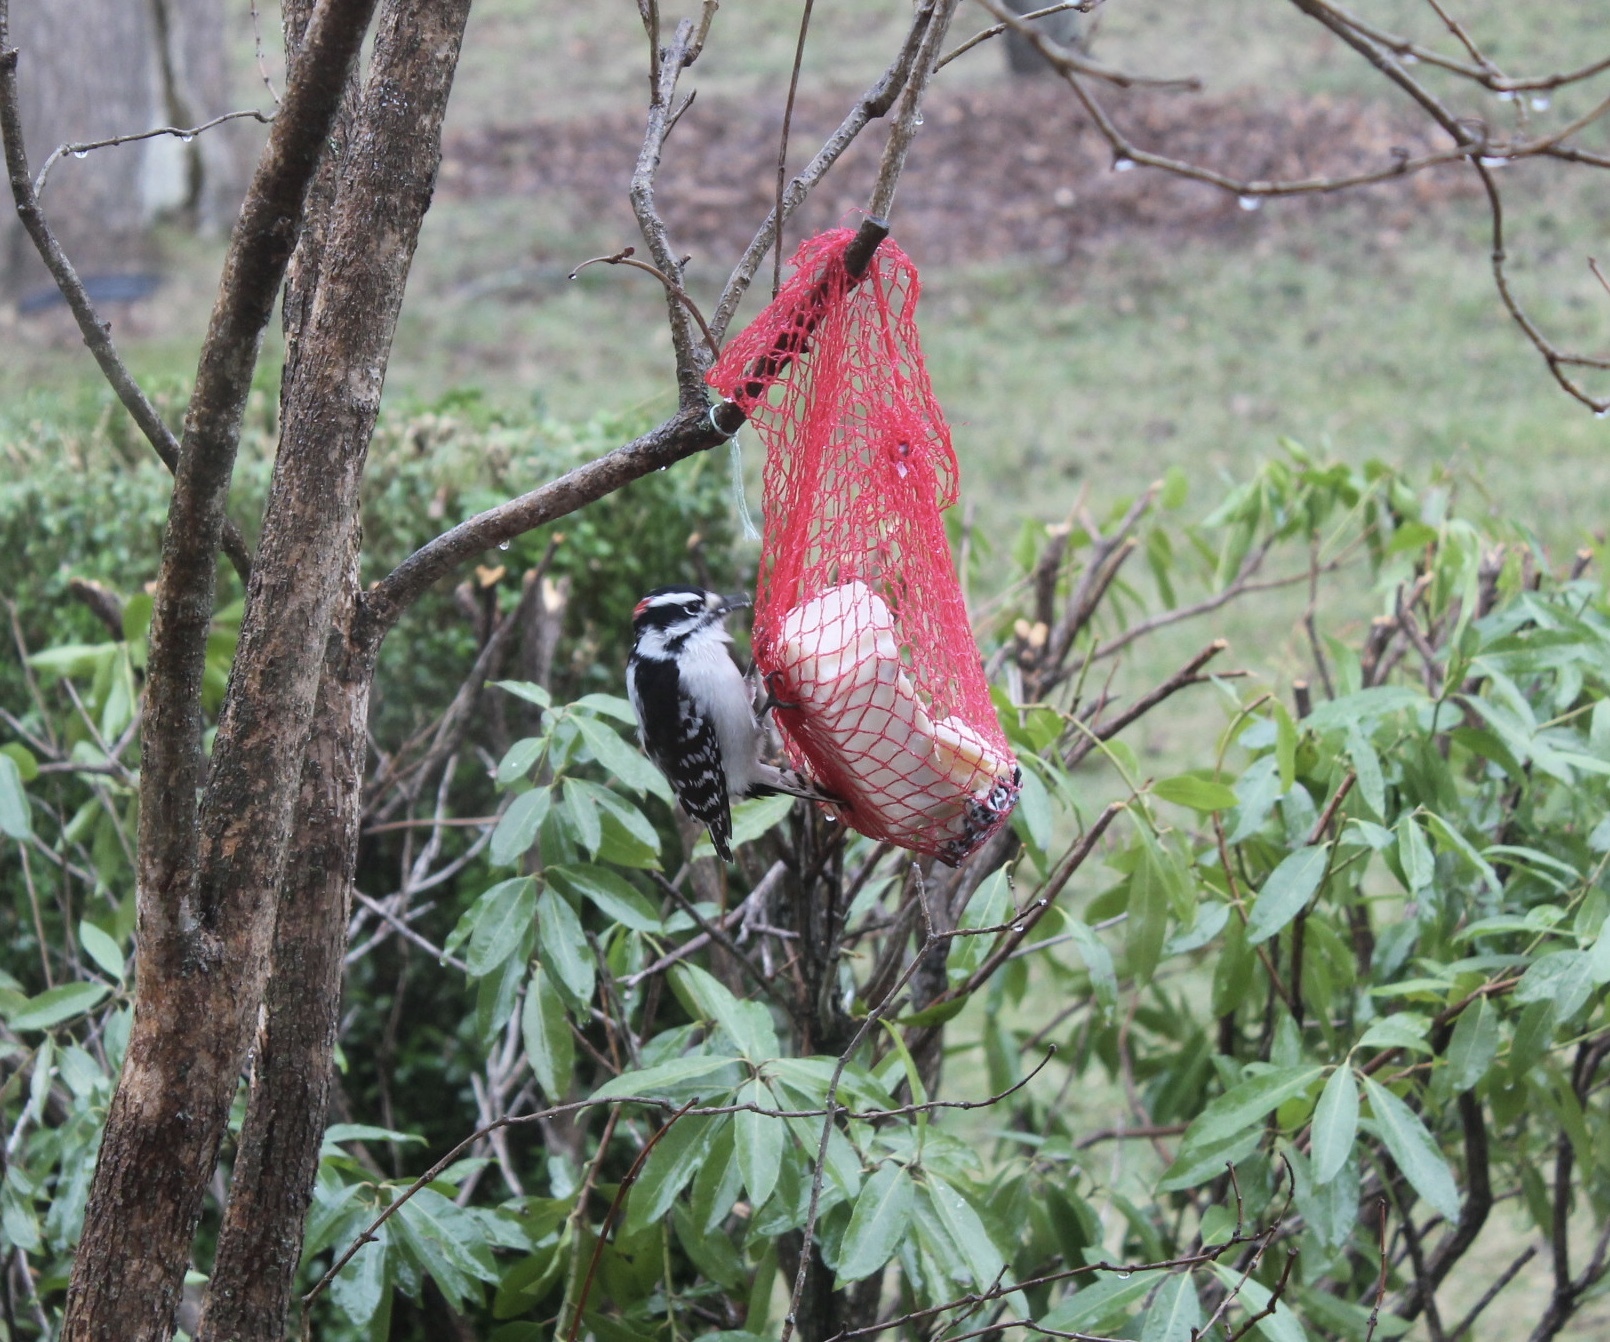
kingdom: Animalia
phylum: Chordata
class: Aves
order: Piciformes
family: Picidae
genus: Dryobates
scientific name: Dryobates pubescens
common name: Downy woodpecker
